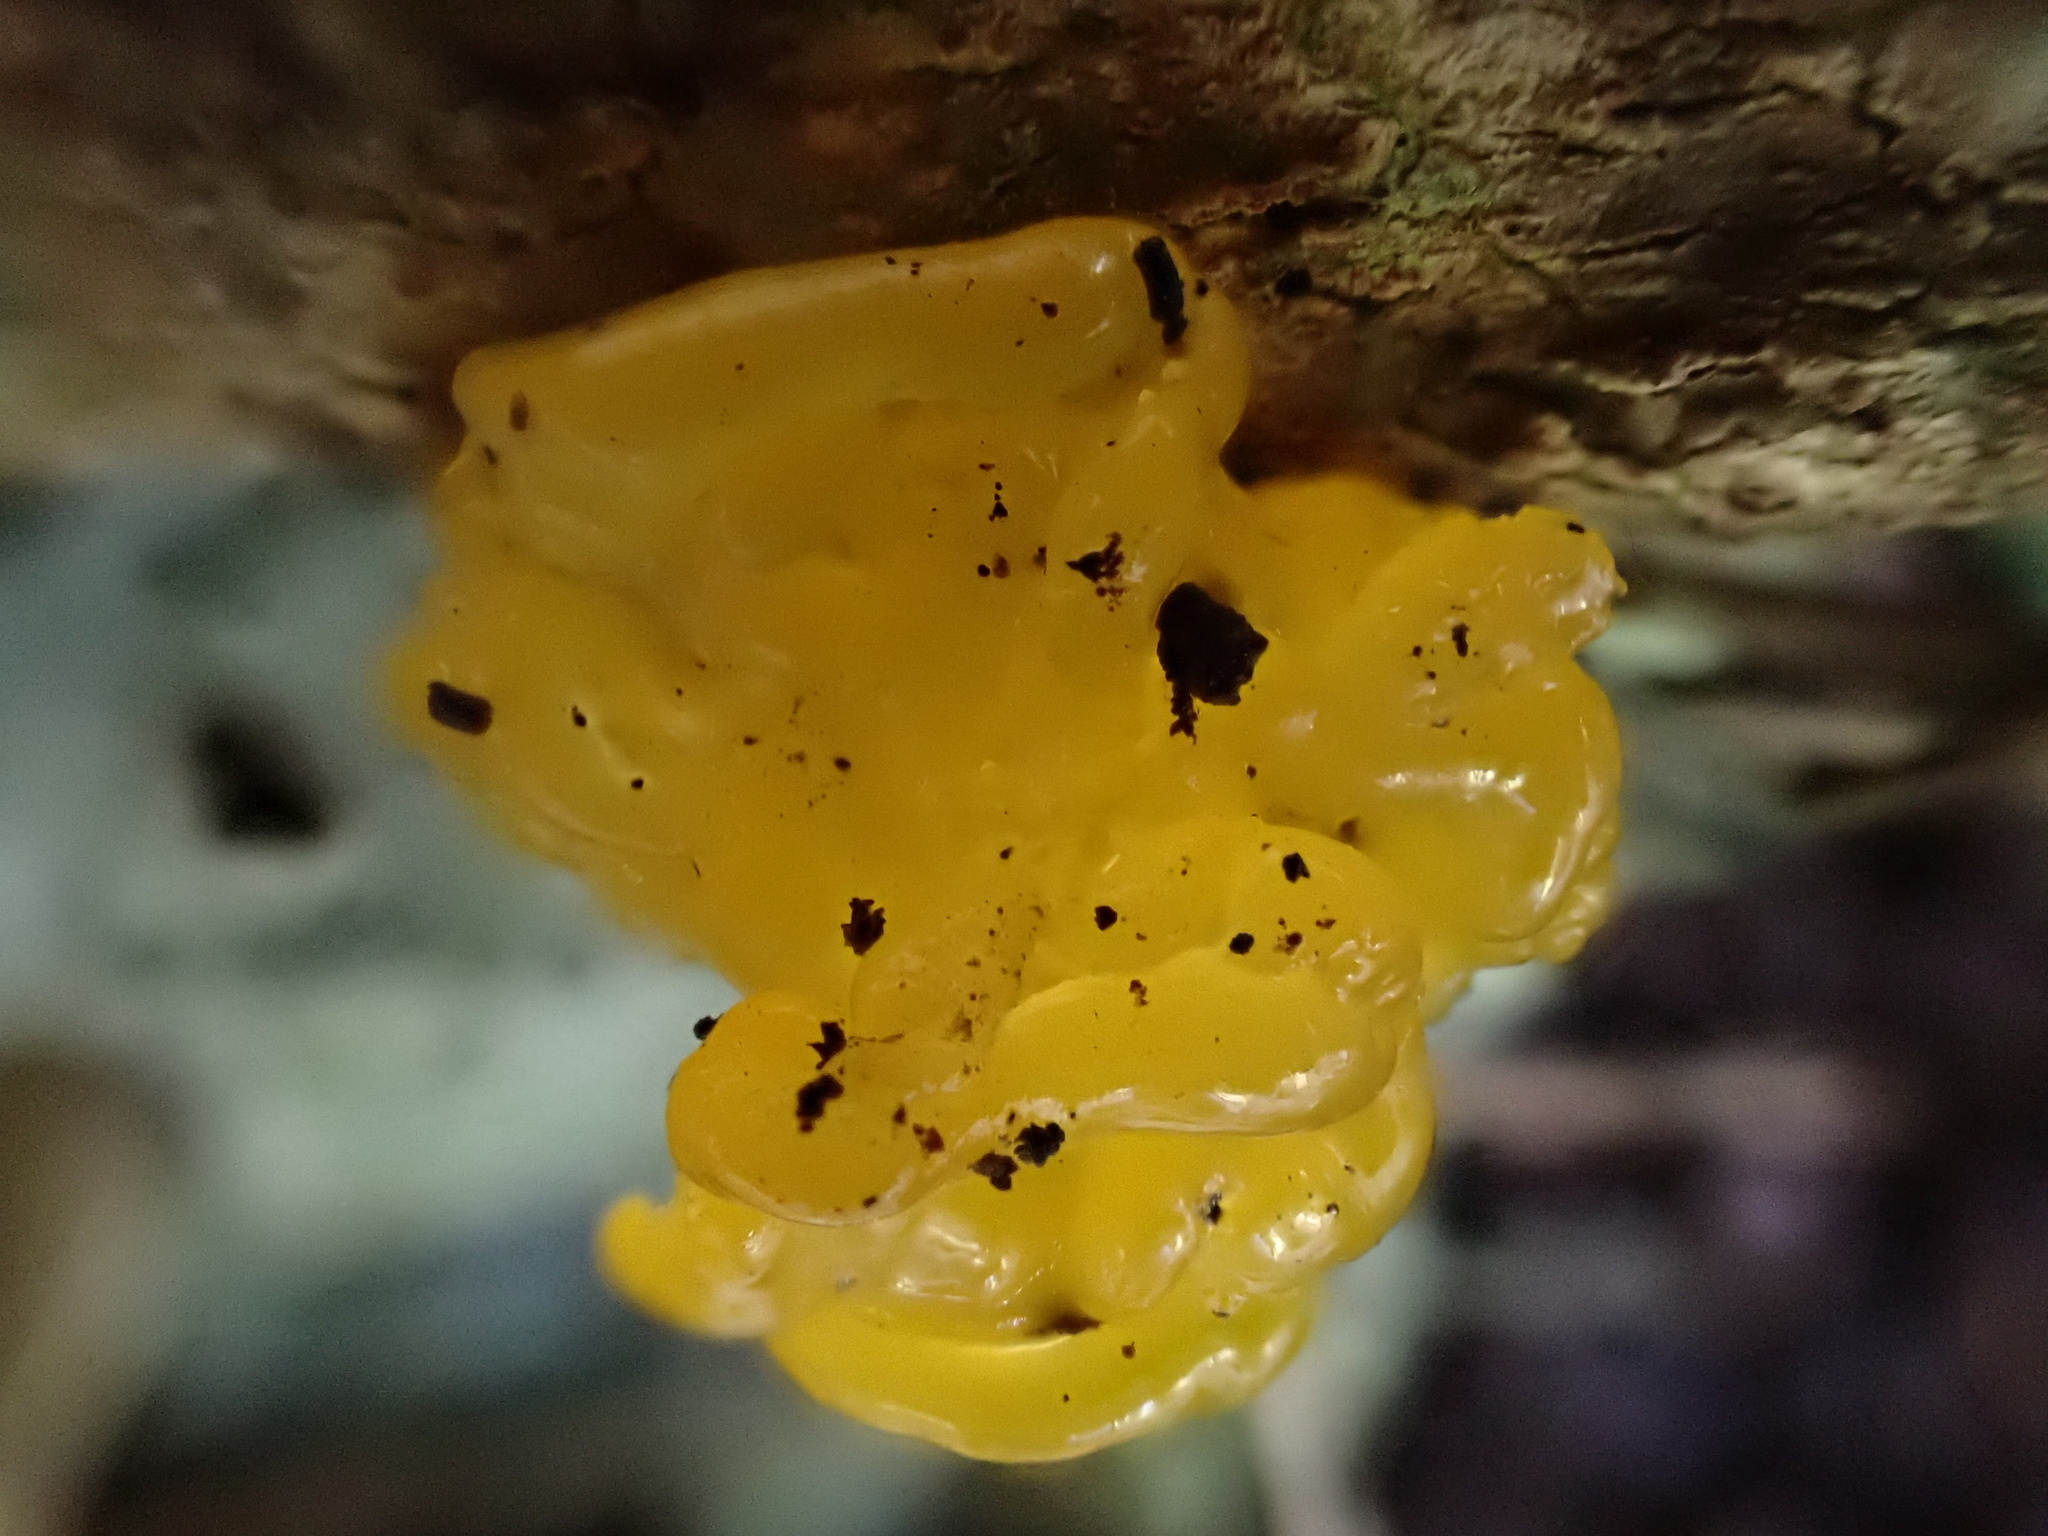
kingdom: Fungi
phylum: Basidiomycota
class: Tremellomycetes
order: Tremellales
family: Tremellaceae
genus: Tremella
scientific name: Tremella mesenterica
